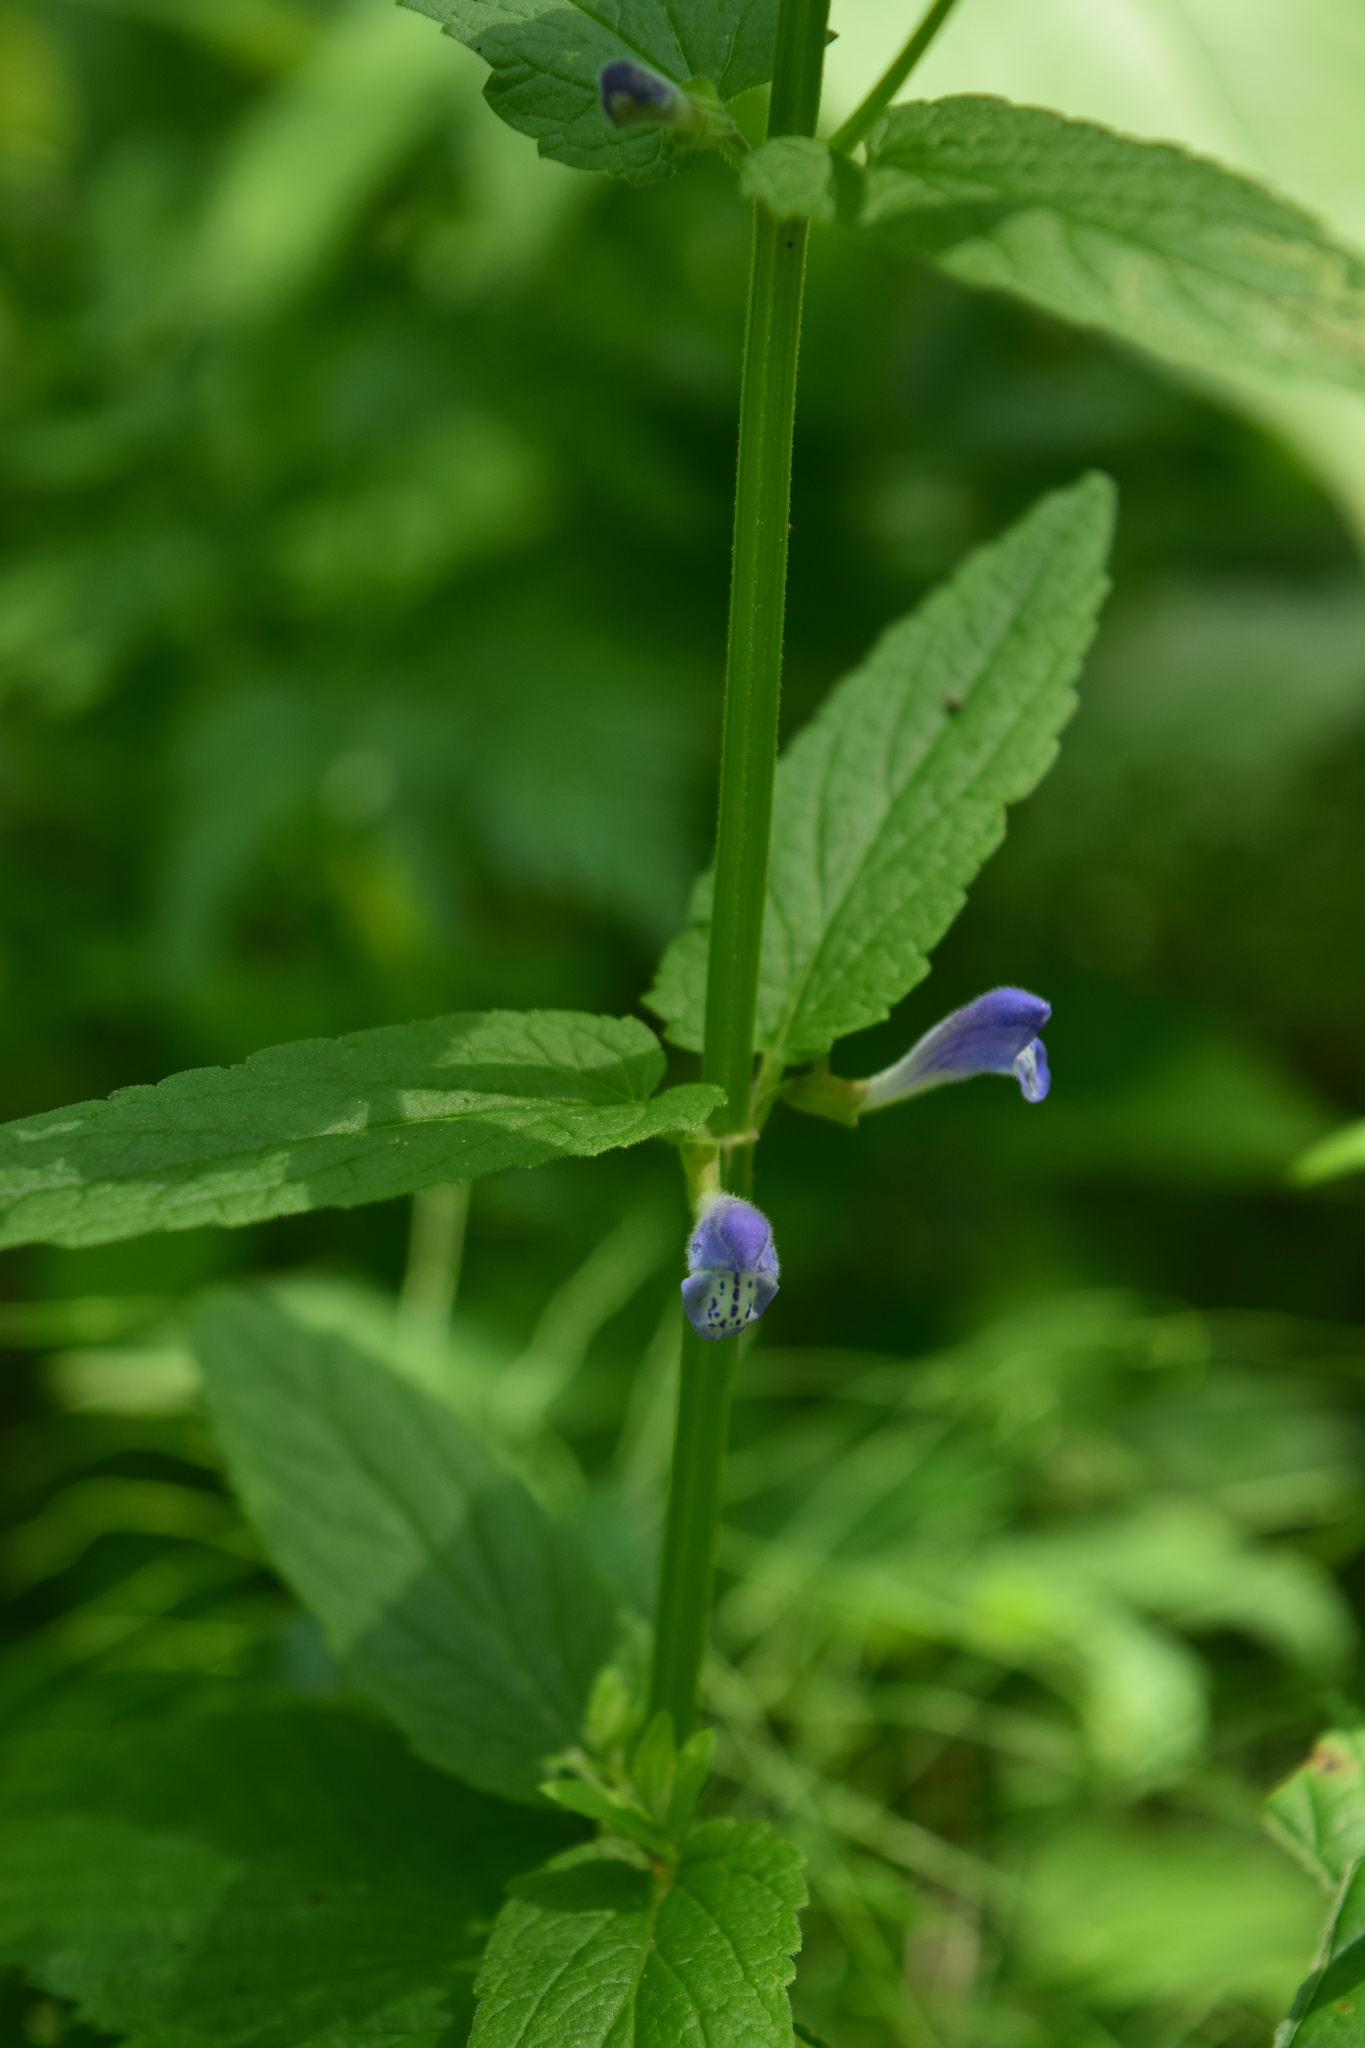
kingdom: Plantae
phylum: Tracheophyta
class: Magnoliopsida
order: Lamiales
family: Lamiaceae
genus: Scutellaria
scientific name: Scutellaria galericulata
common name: Skullcap
